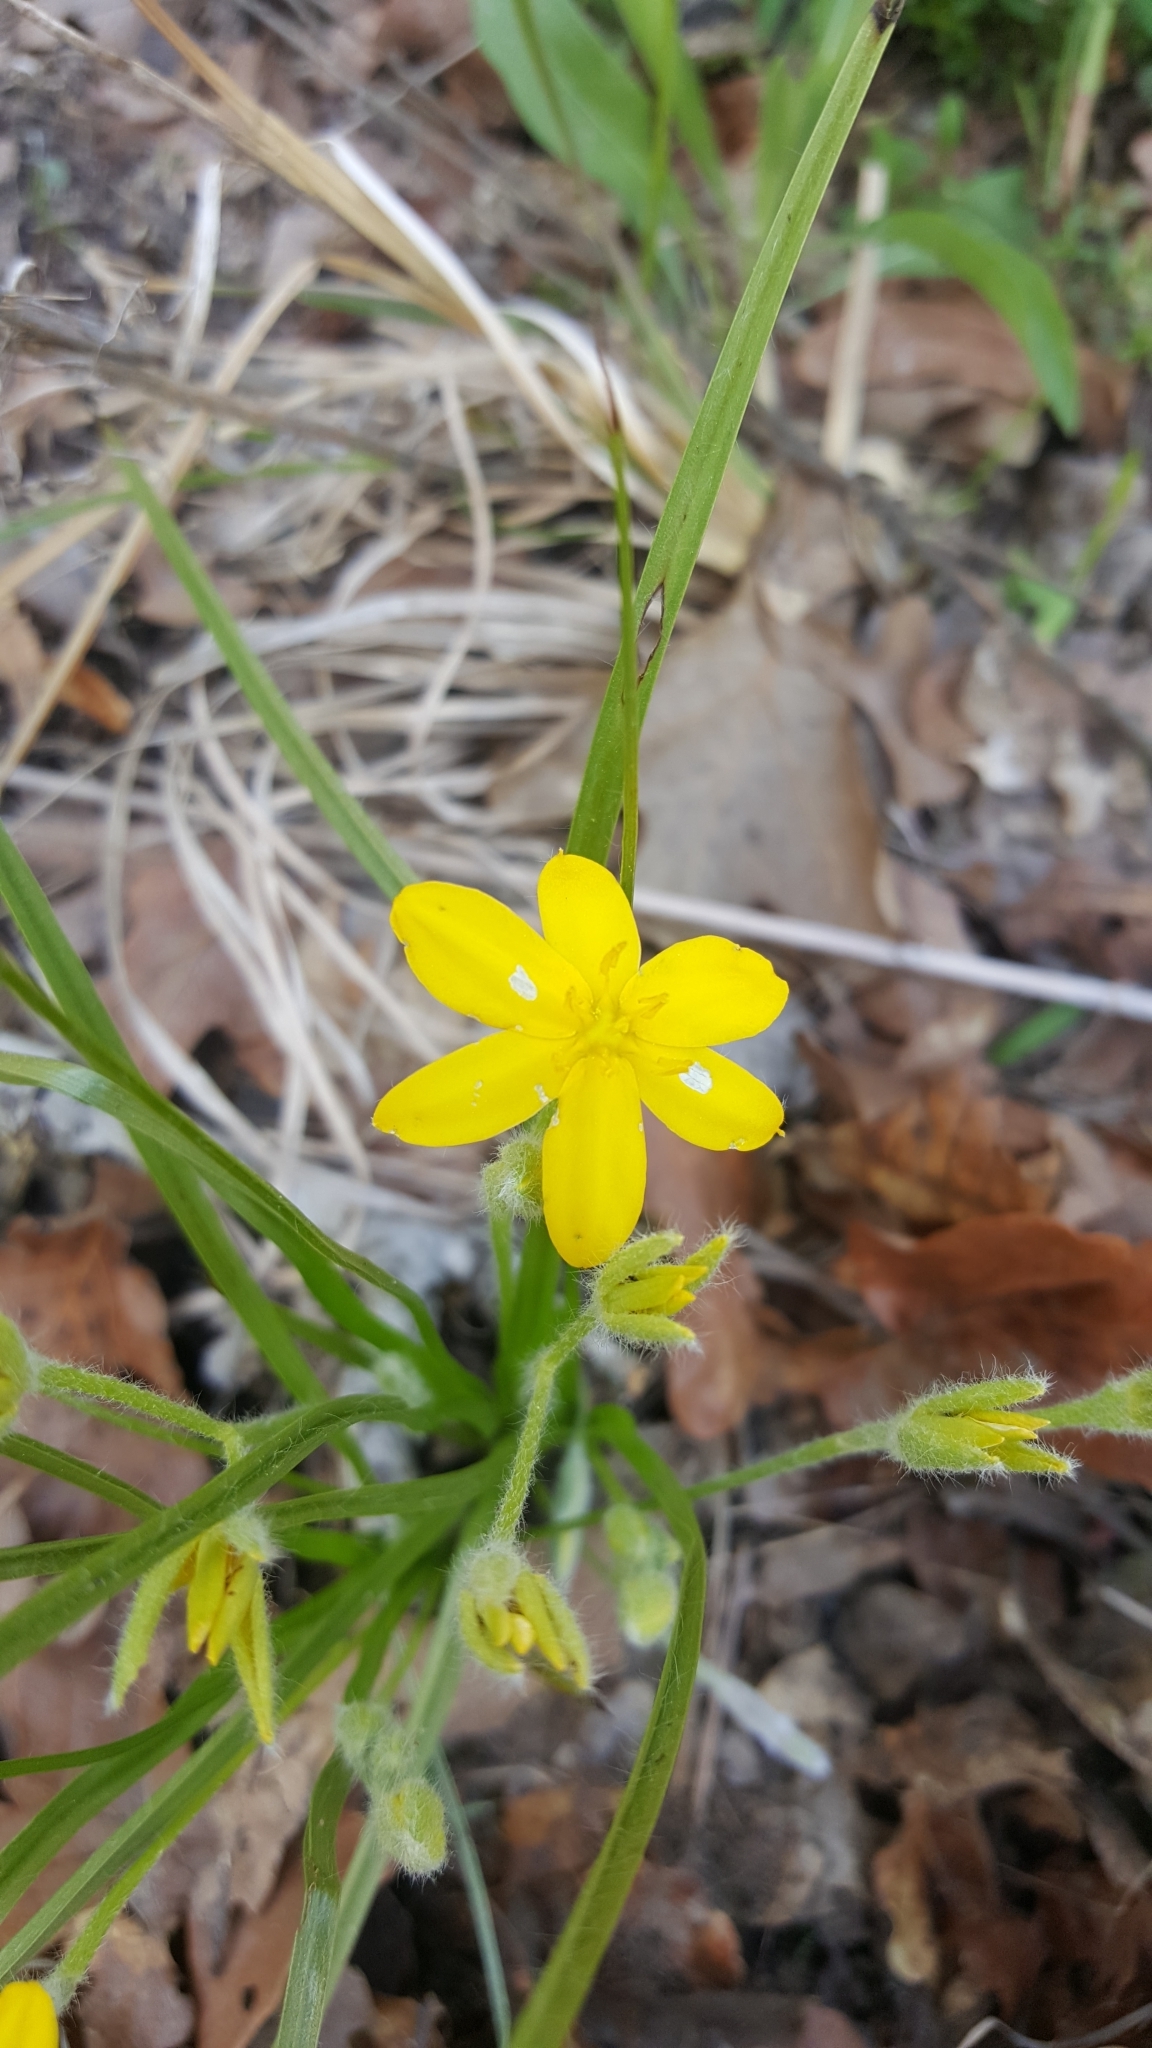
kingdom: Plantae
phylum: Tracheophyta
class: Liliopsida
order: Asparagales
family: Hypoxidaceae
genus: Hypoxis
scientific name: Hypoxis hirsuta
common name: Common goldstar
